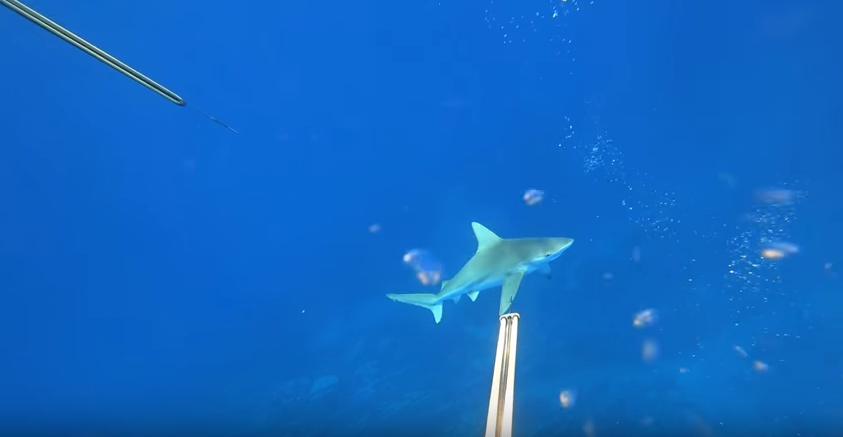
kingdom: Animalia
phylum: Chordata
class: Elasmobranchii
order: Carcharhiniformes
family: Carcharhinidae
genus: Carcharhinus
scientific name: Carcharhinus plumbeus
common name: Sandbar shark
